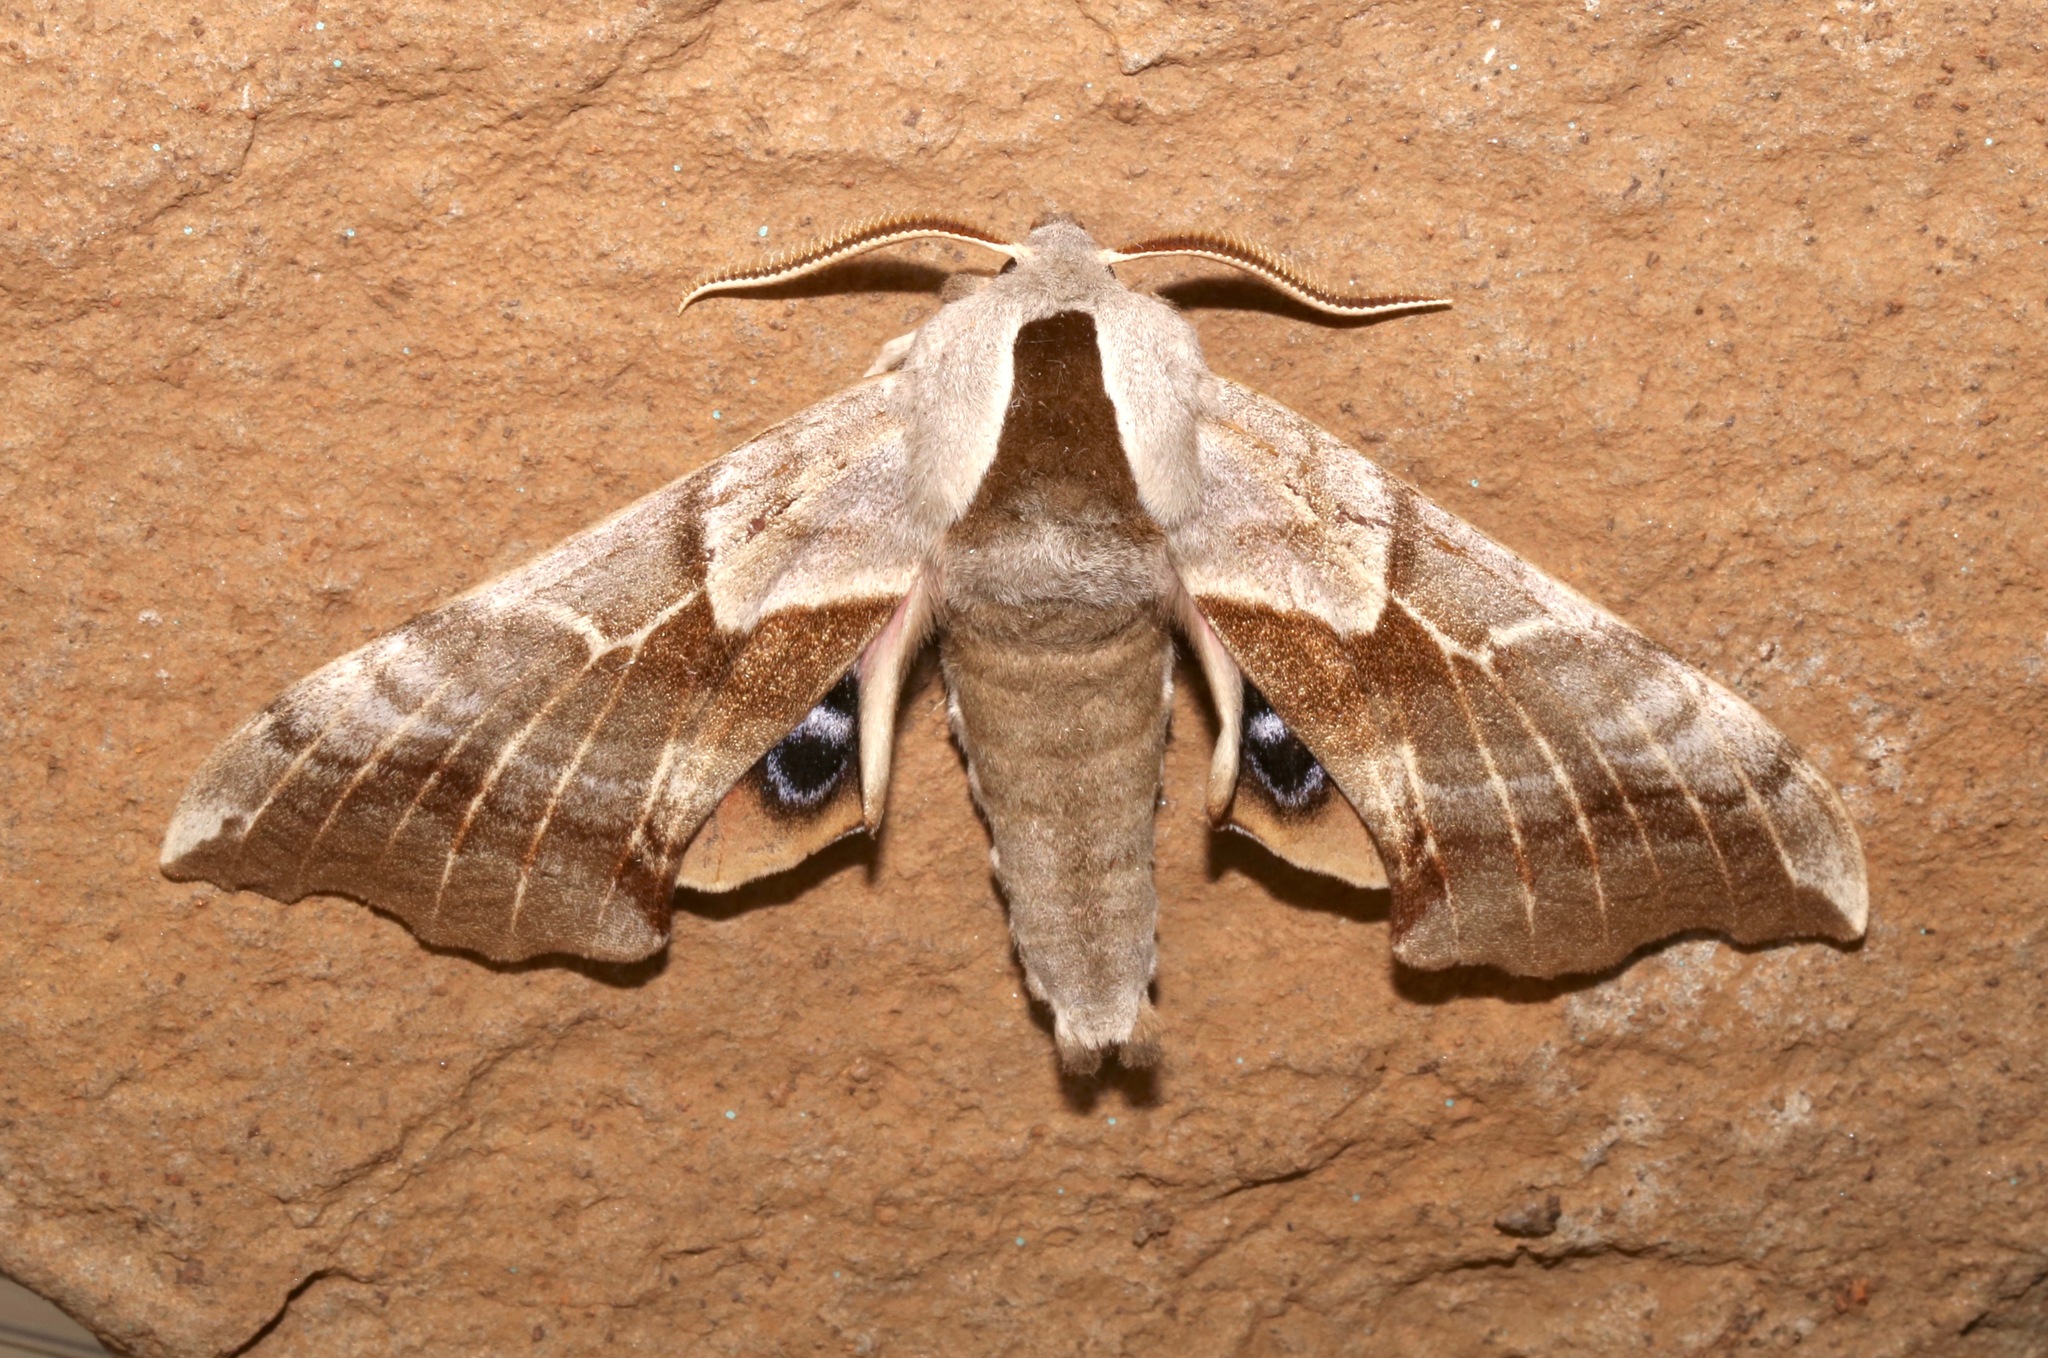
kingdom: Animalia
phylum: Arthropoda
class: Insecta
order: Lepidoptera
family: Sphingidae
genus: Smerinthus
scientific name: Smerinthus cerisyi
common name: Cerisy's sphinx moth
